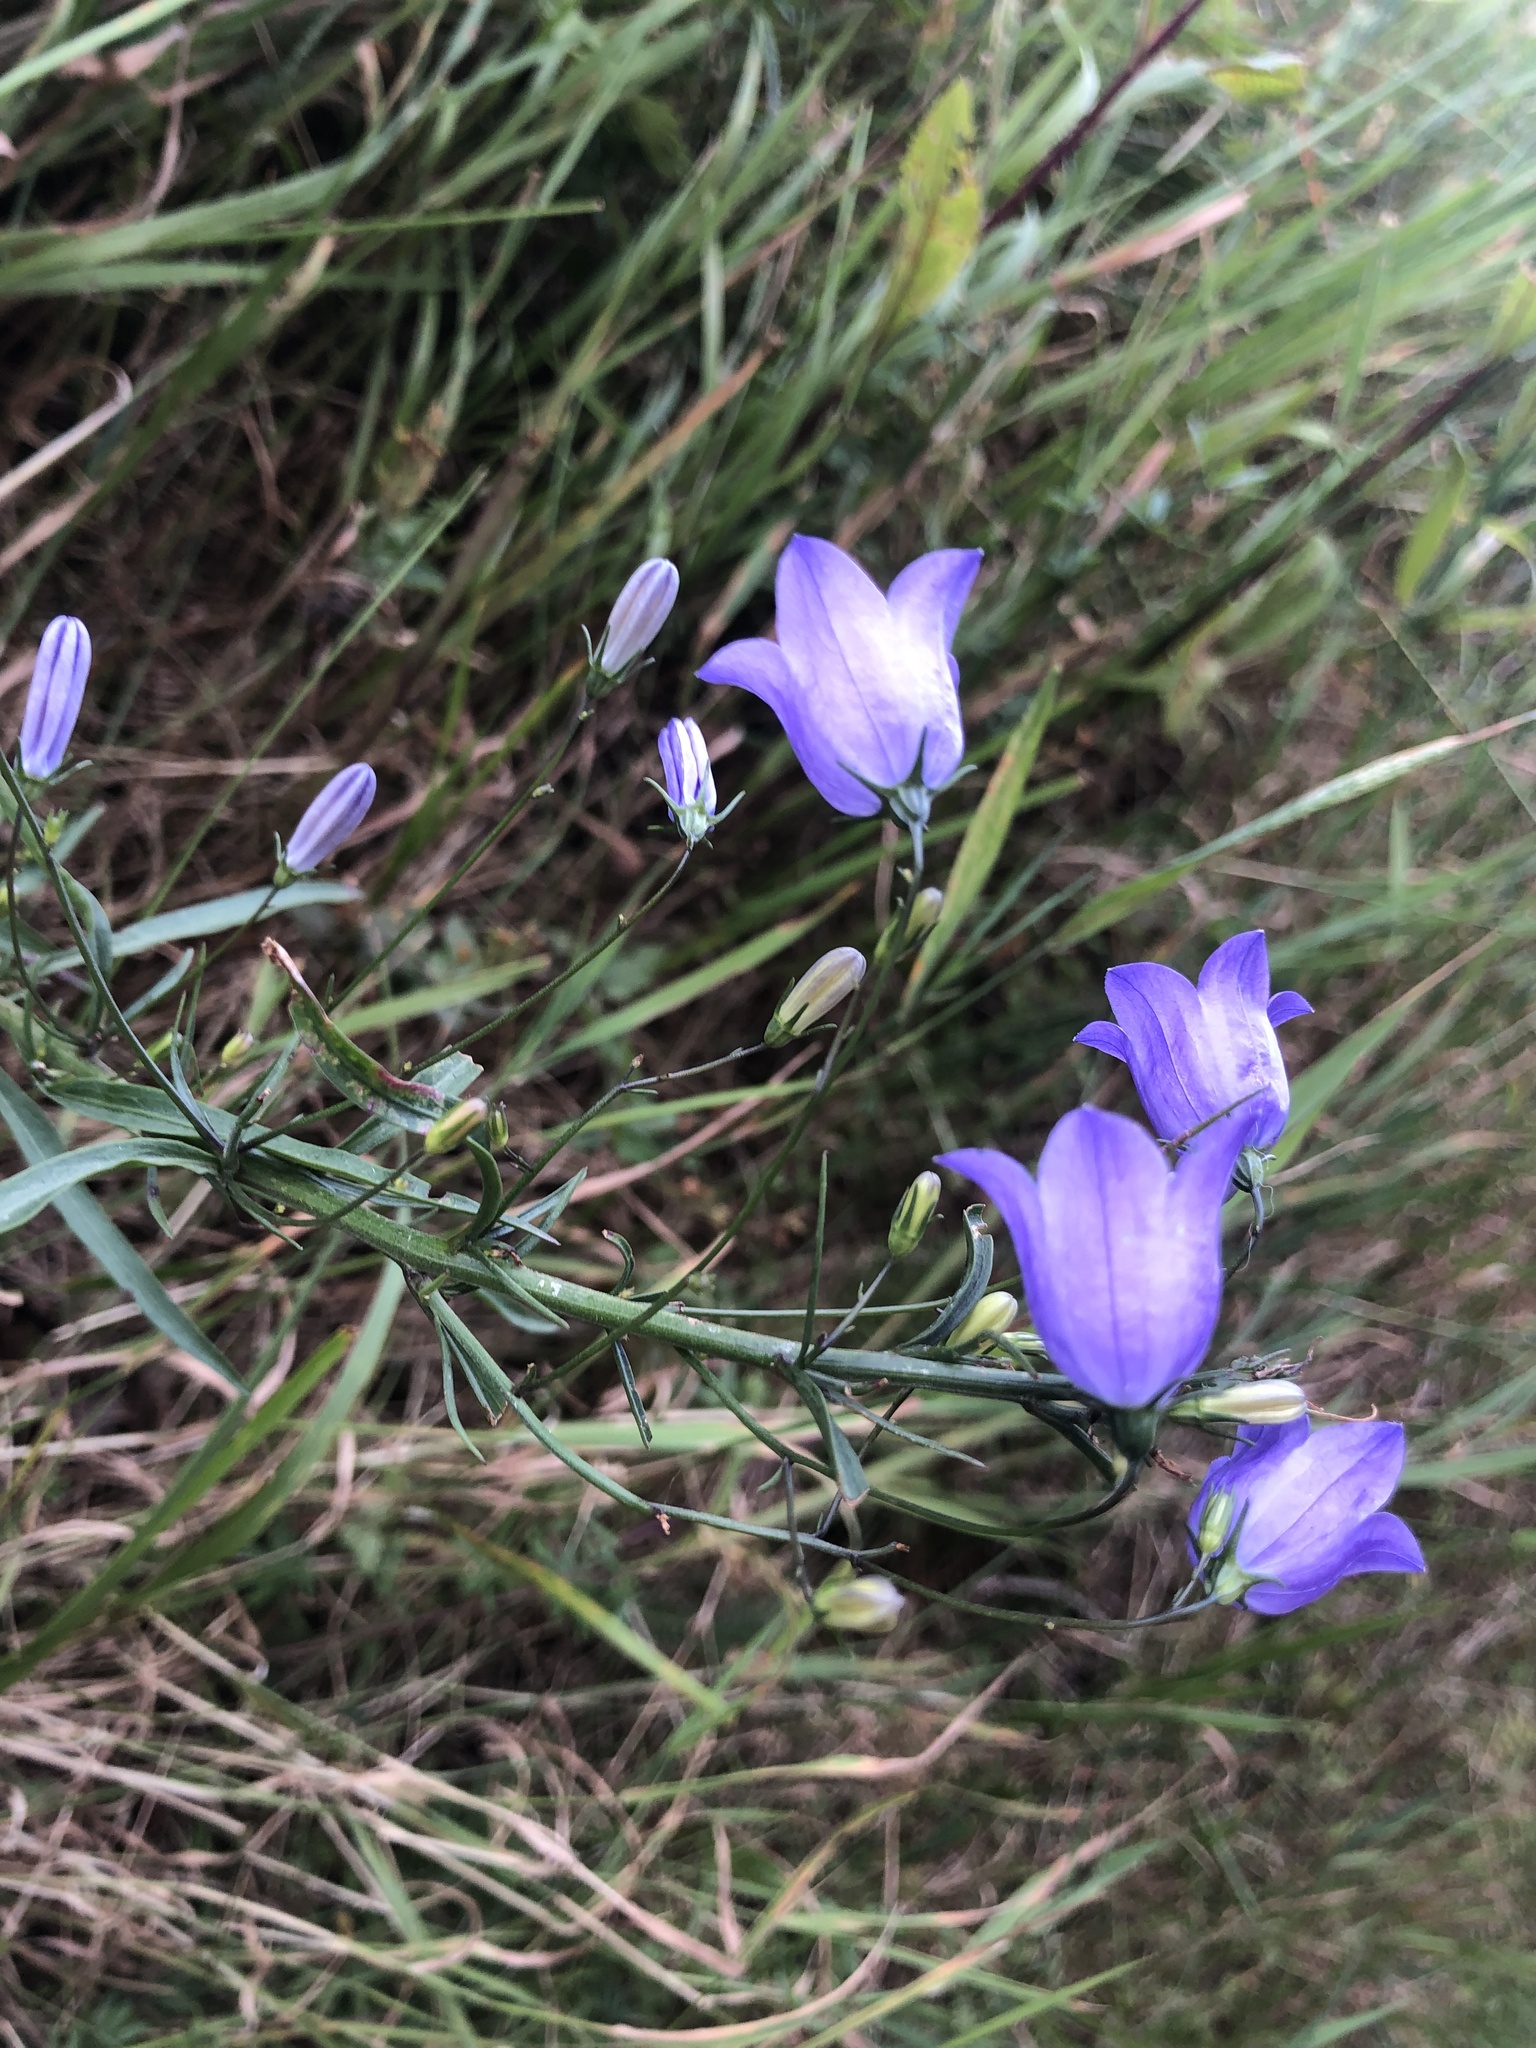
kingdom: Plantae
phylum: Tracheophyta
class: Magnoliopsida
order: Asterales
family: Campanulaceae
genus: Campanula
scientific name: Campanula rotundifolia
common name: Harebell
